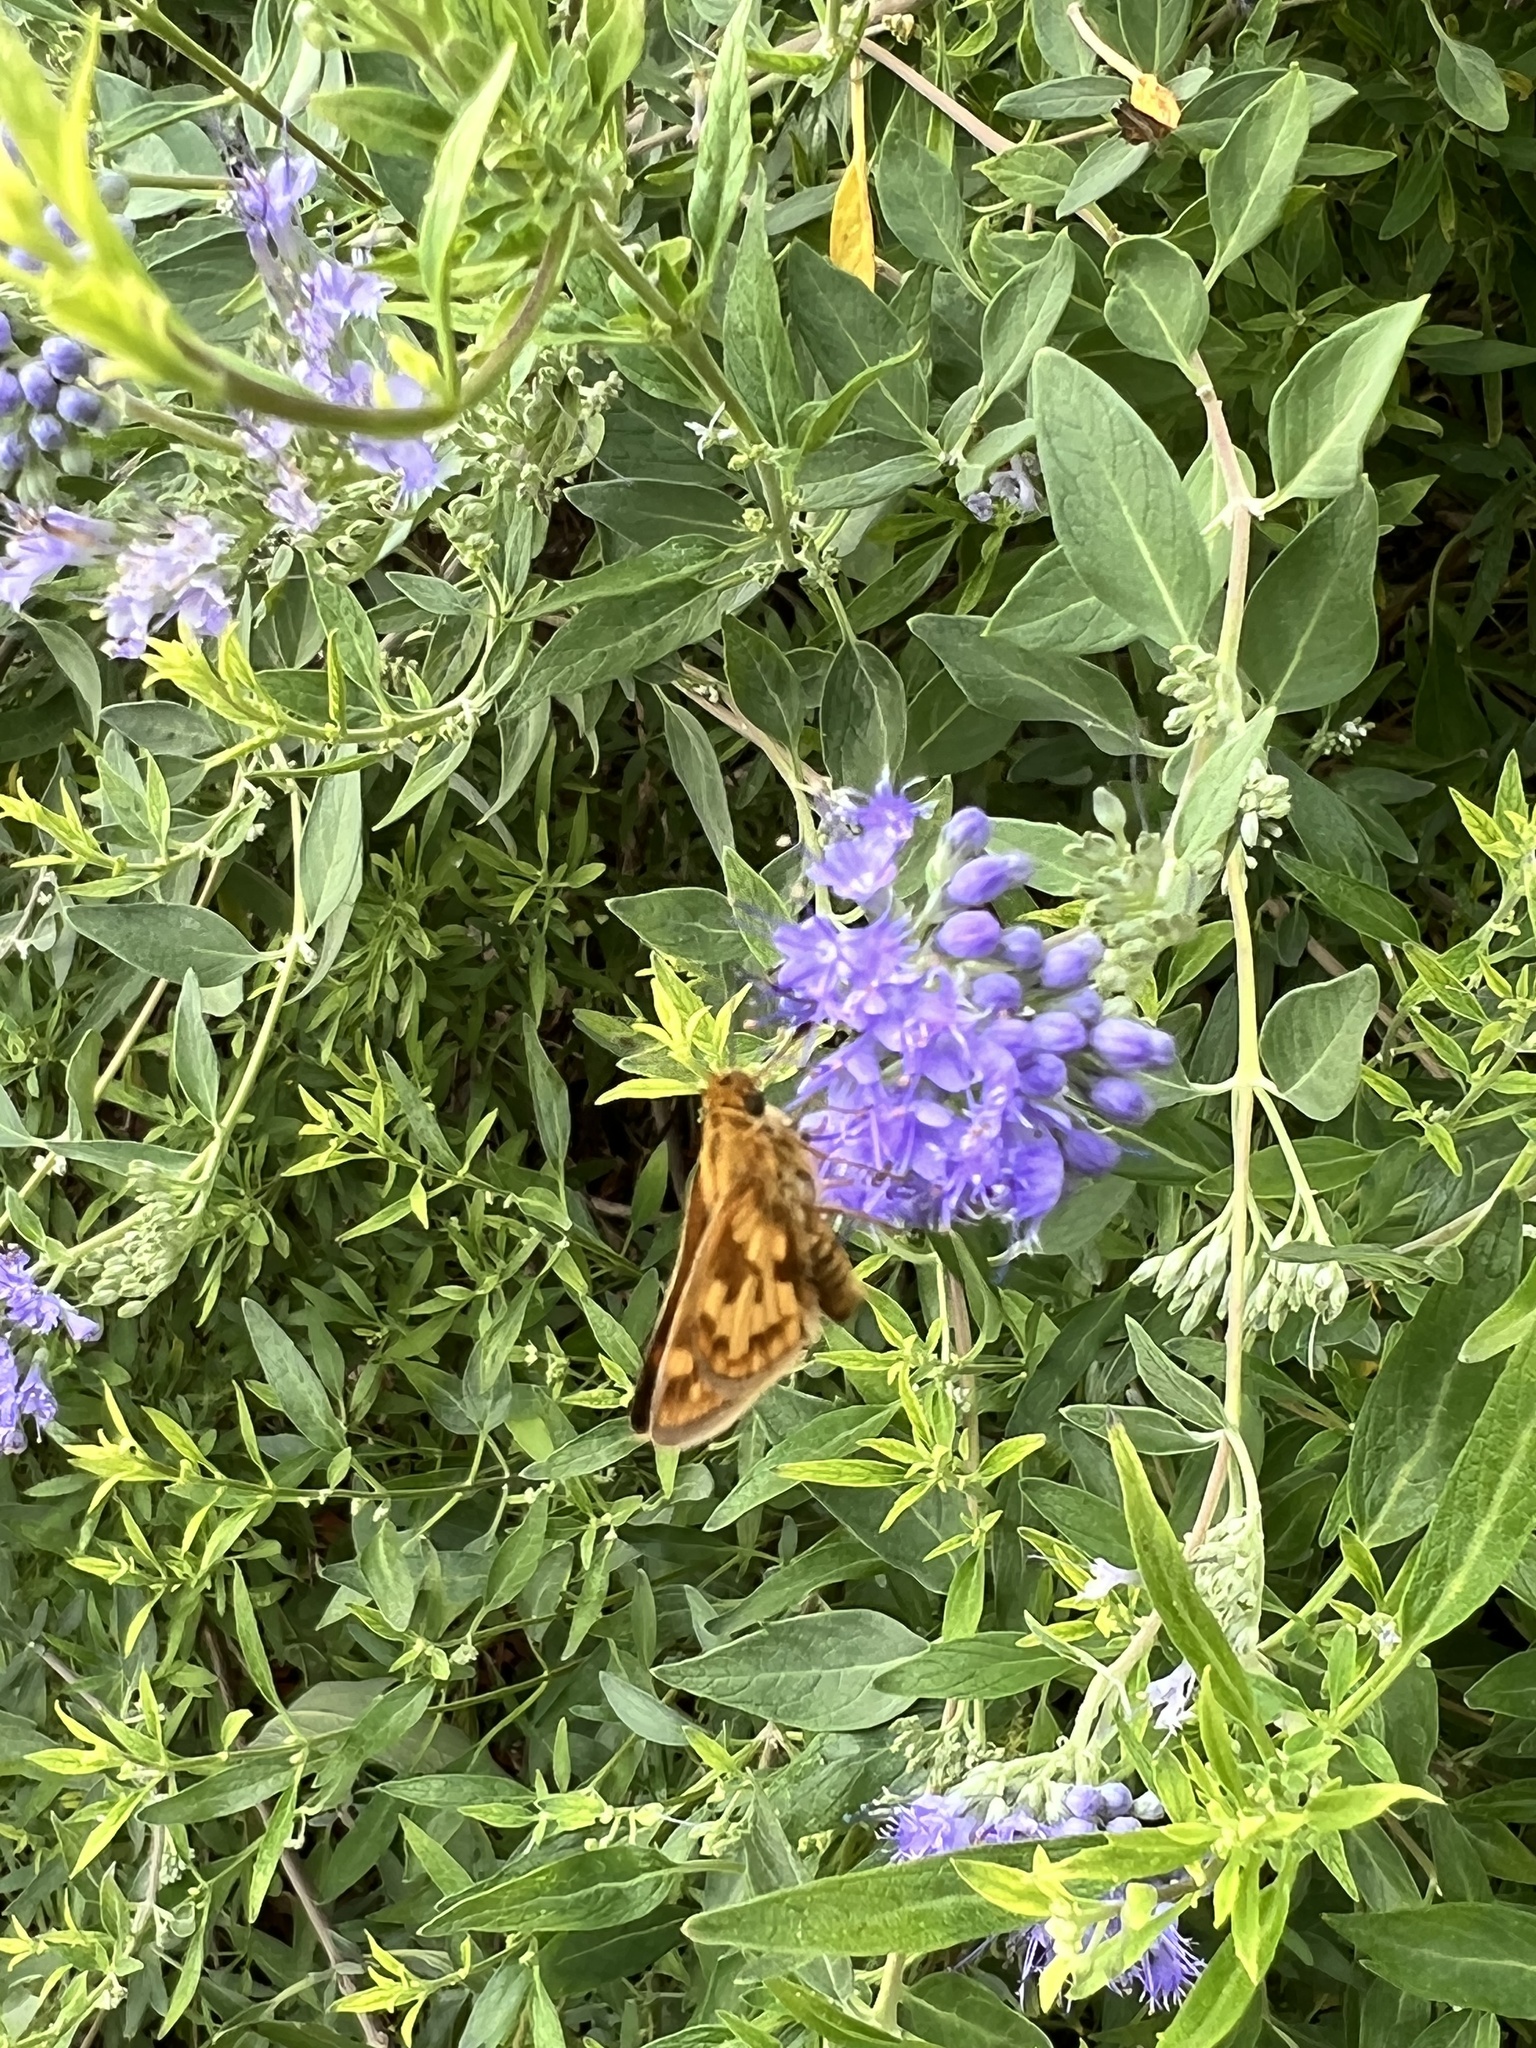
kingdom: Animalia
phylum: Arthropoda
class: Insecta
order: Lepidoptera
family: Hesperiidae
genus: Polites
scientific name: Polites coras
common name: Peck's skipper
